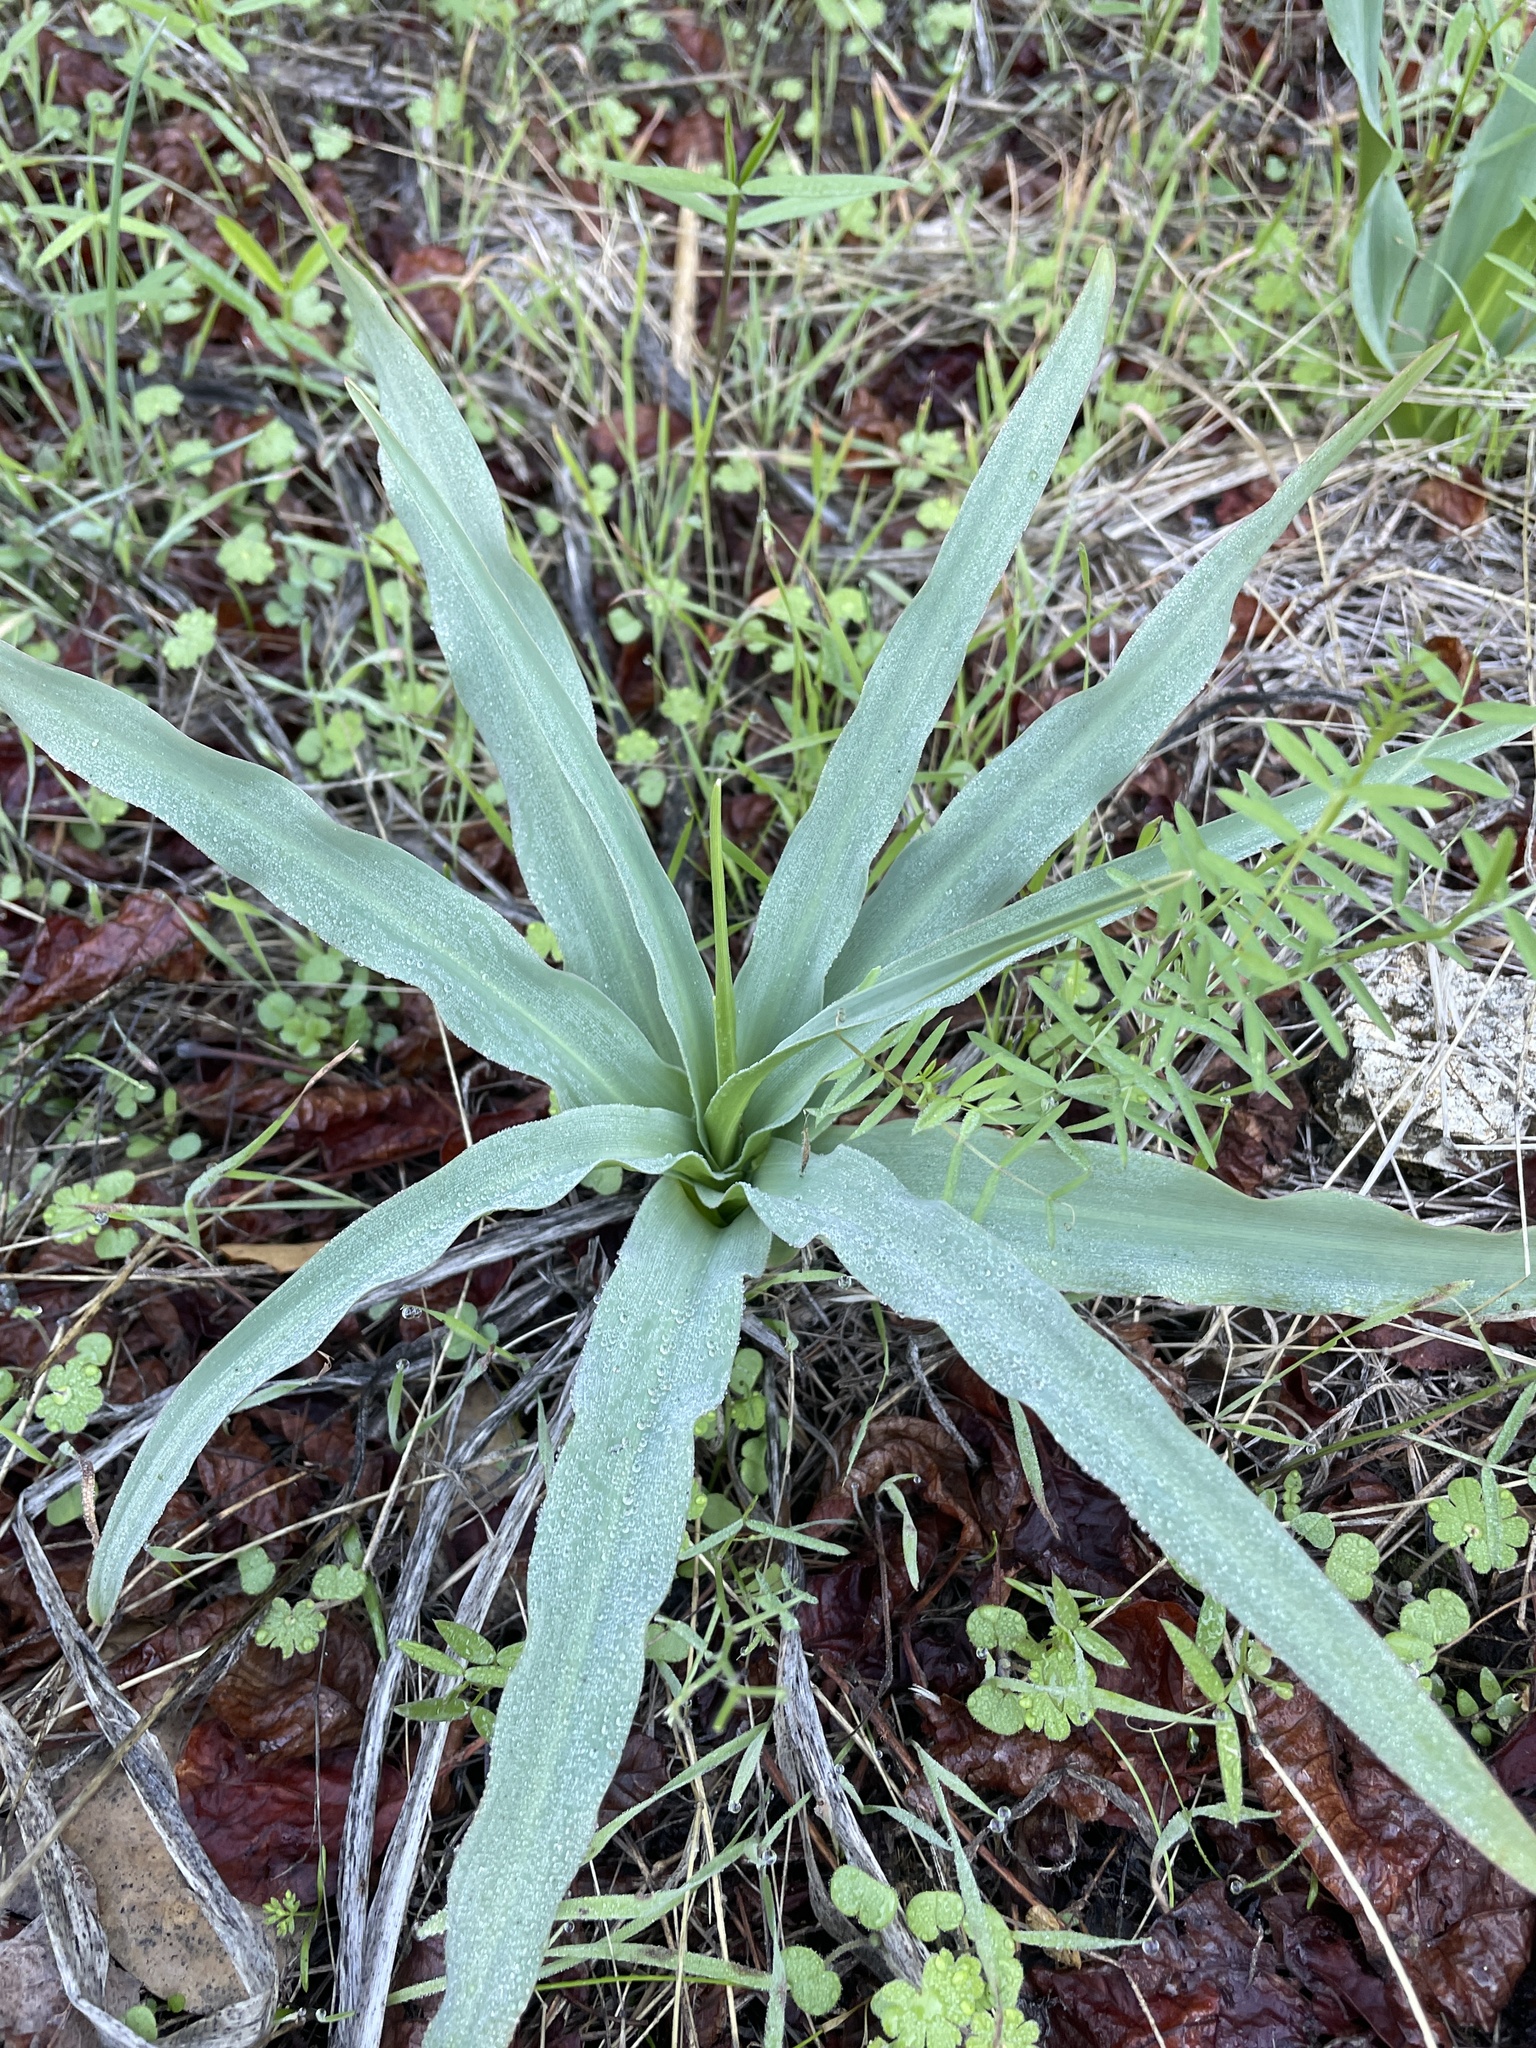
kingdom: Plantae
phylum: Tracheophyta
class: Liliopsida
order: Asparagales
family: Asparagaceae
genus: Chlorogalum
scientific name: Chlorogalum pomeridianum
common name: Amole
